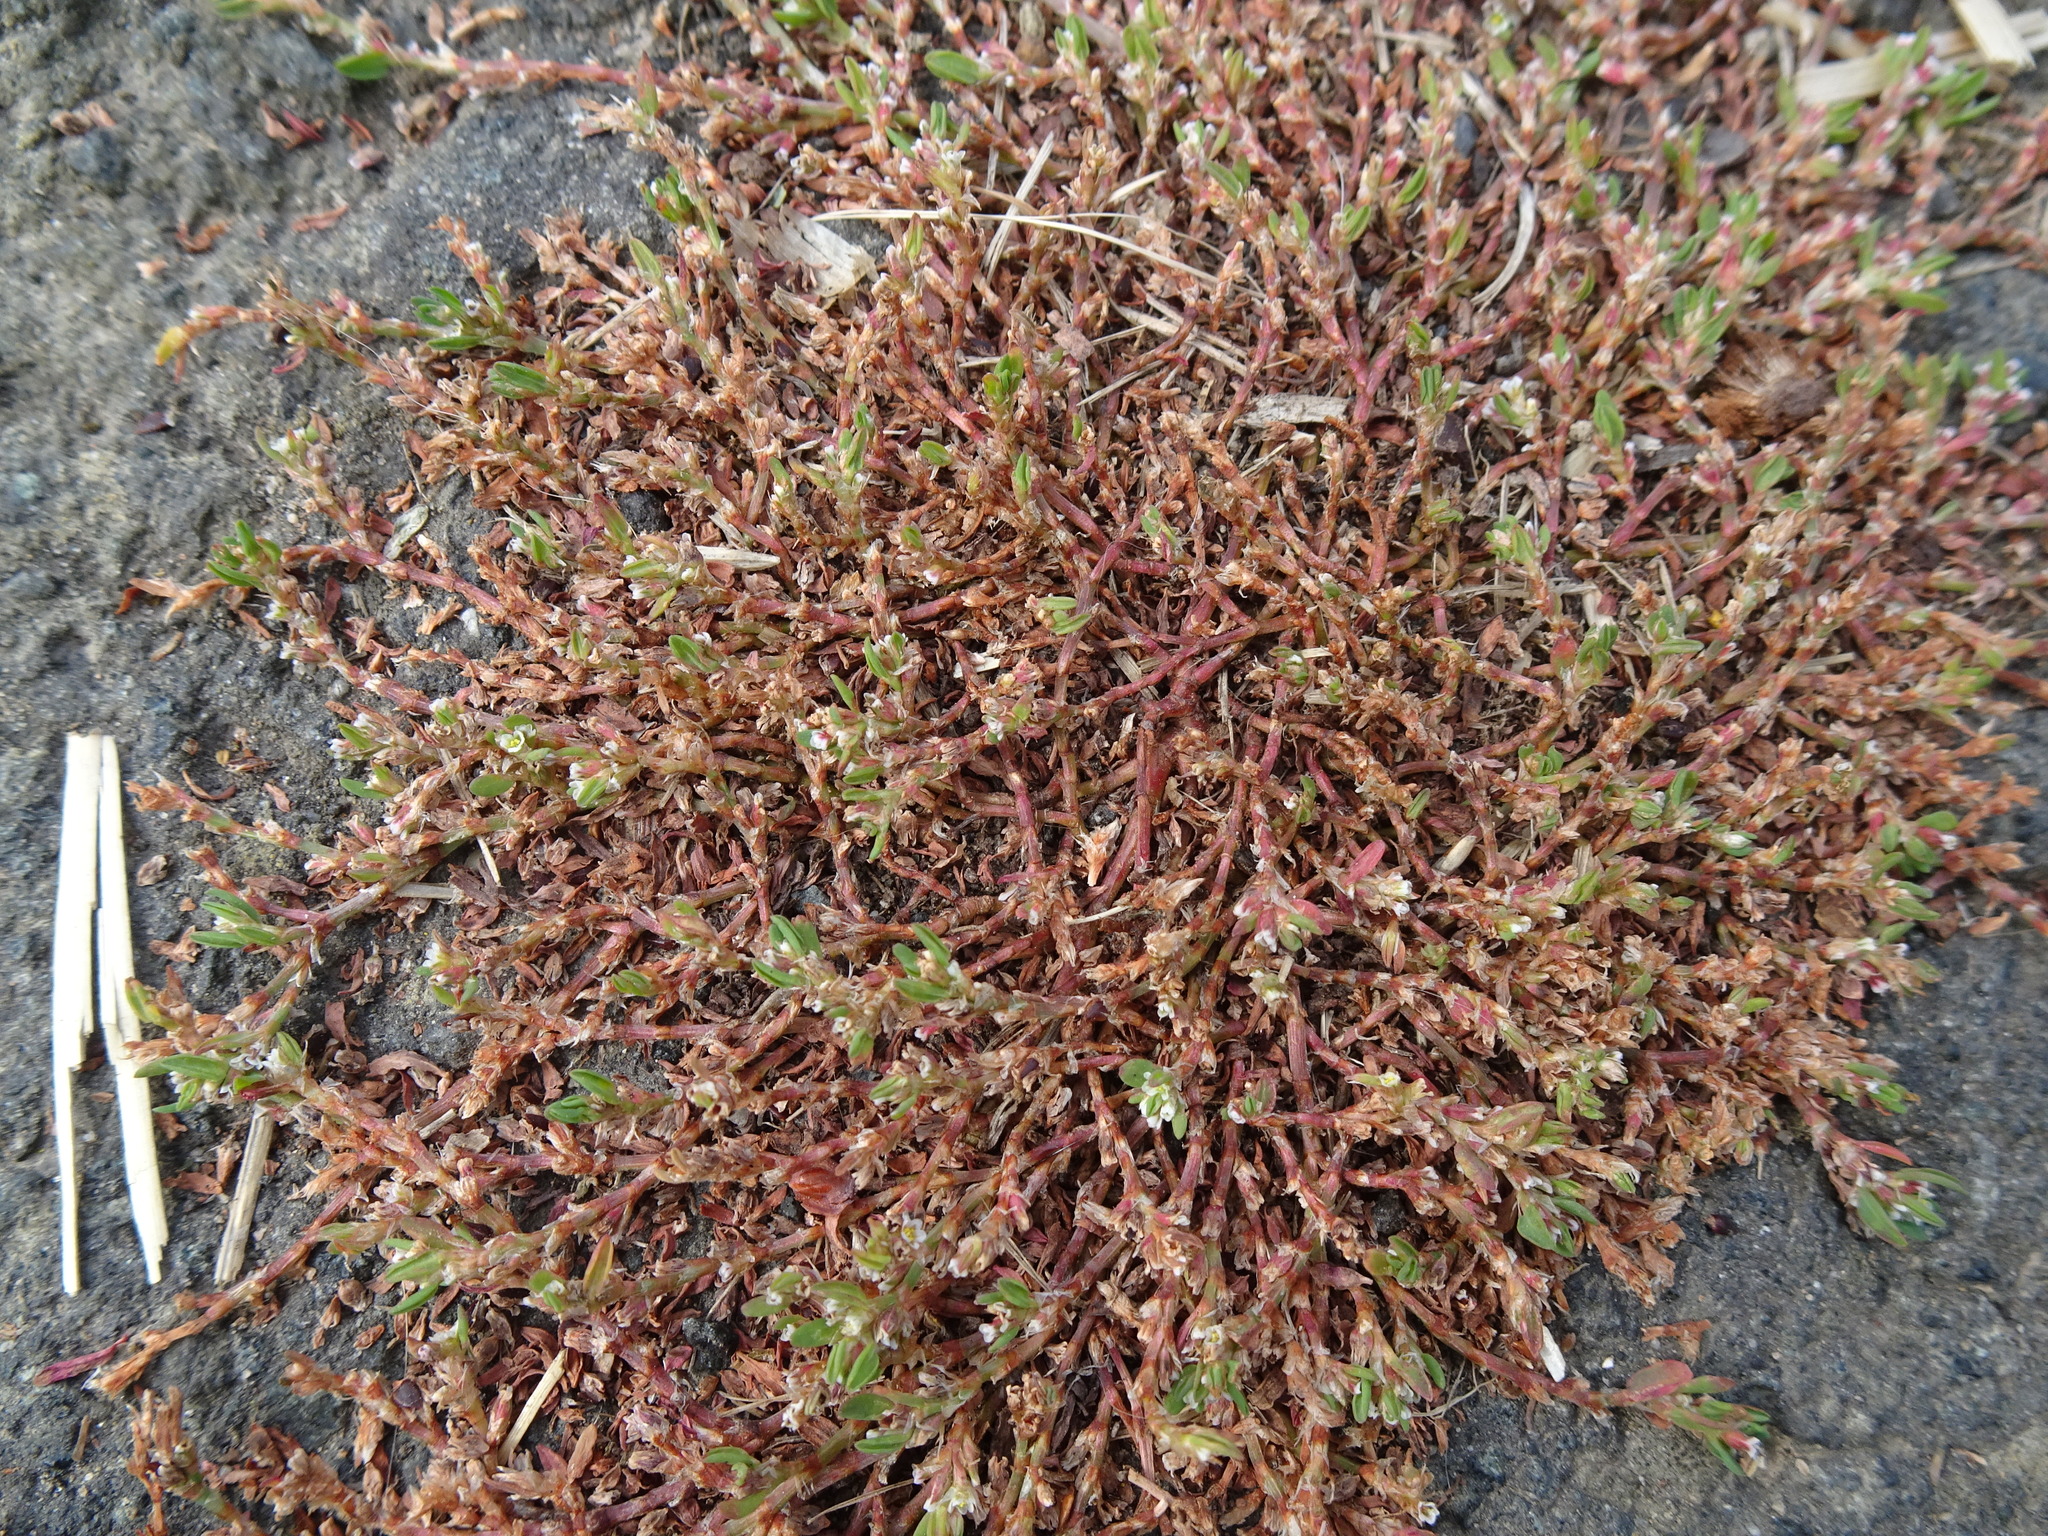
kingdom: Plantae
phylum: Tracheophyta
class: Magnoliopsida
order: Caryophyllales
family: Polygonaceae
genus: Polygonum
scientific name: Polygonum arenastrum
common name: Equal-leaved knotgrass
